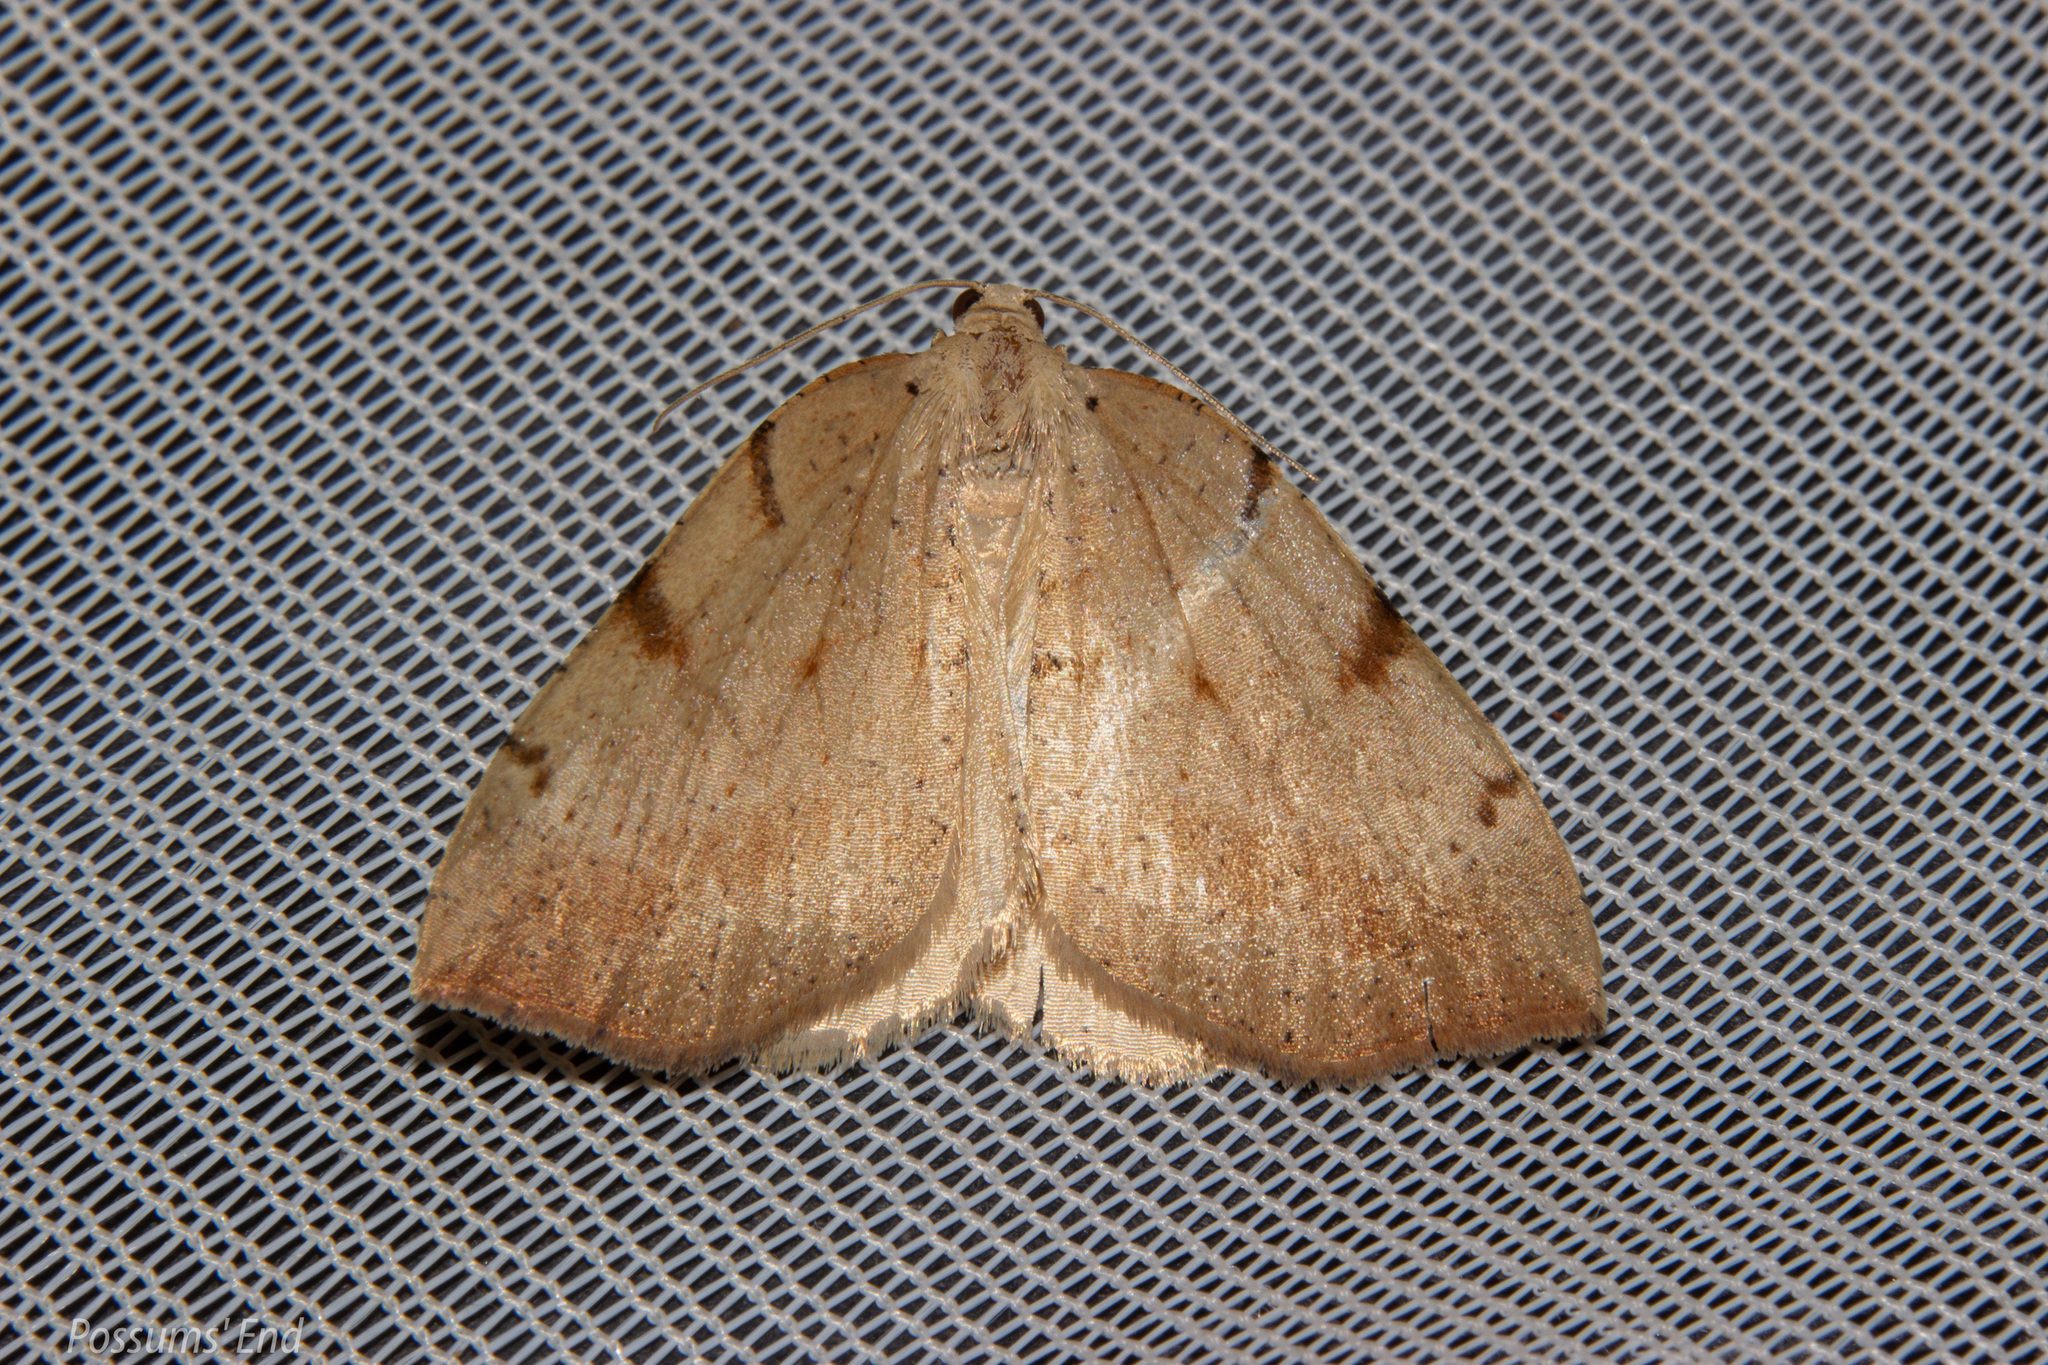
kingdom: Animalia
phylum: Arthropoda
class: Insecta
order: Lepidoptera
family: Geometridae
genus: Sestra
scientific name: Sestra humeraria
